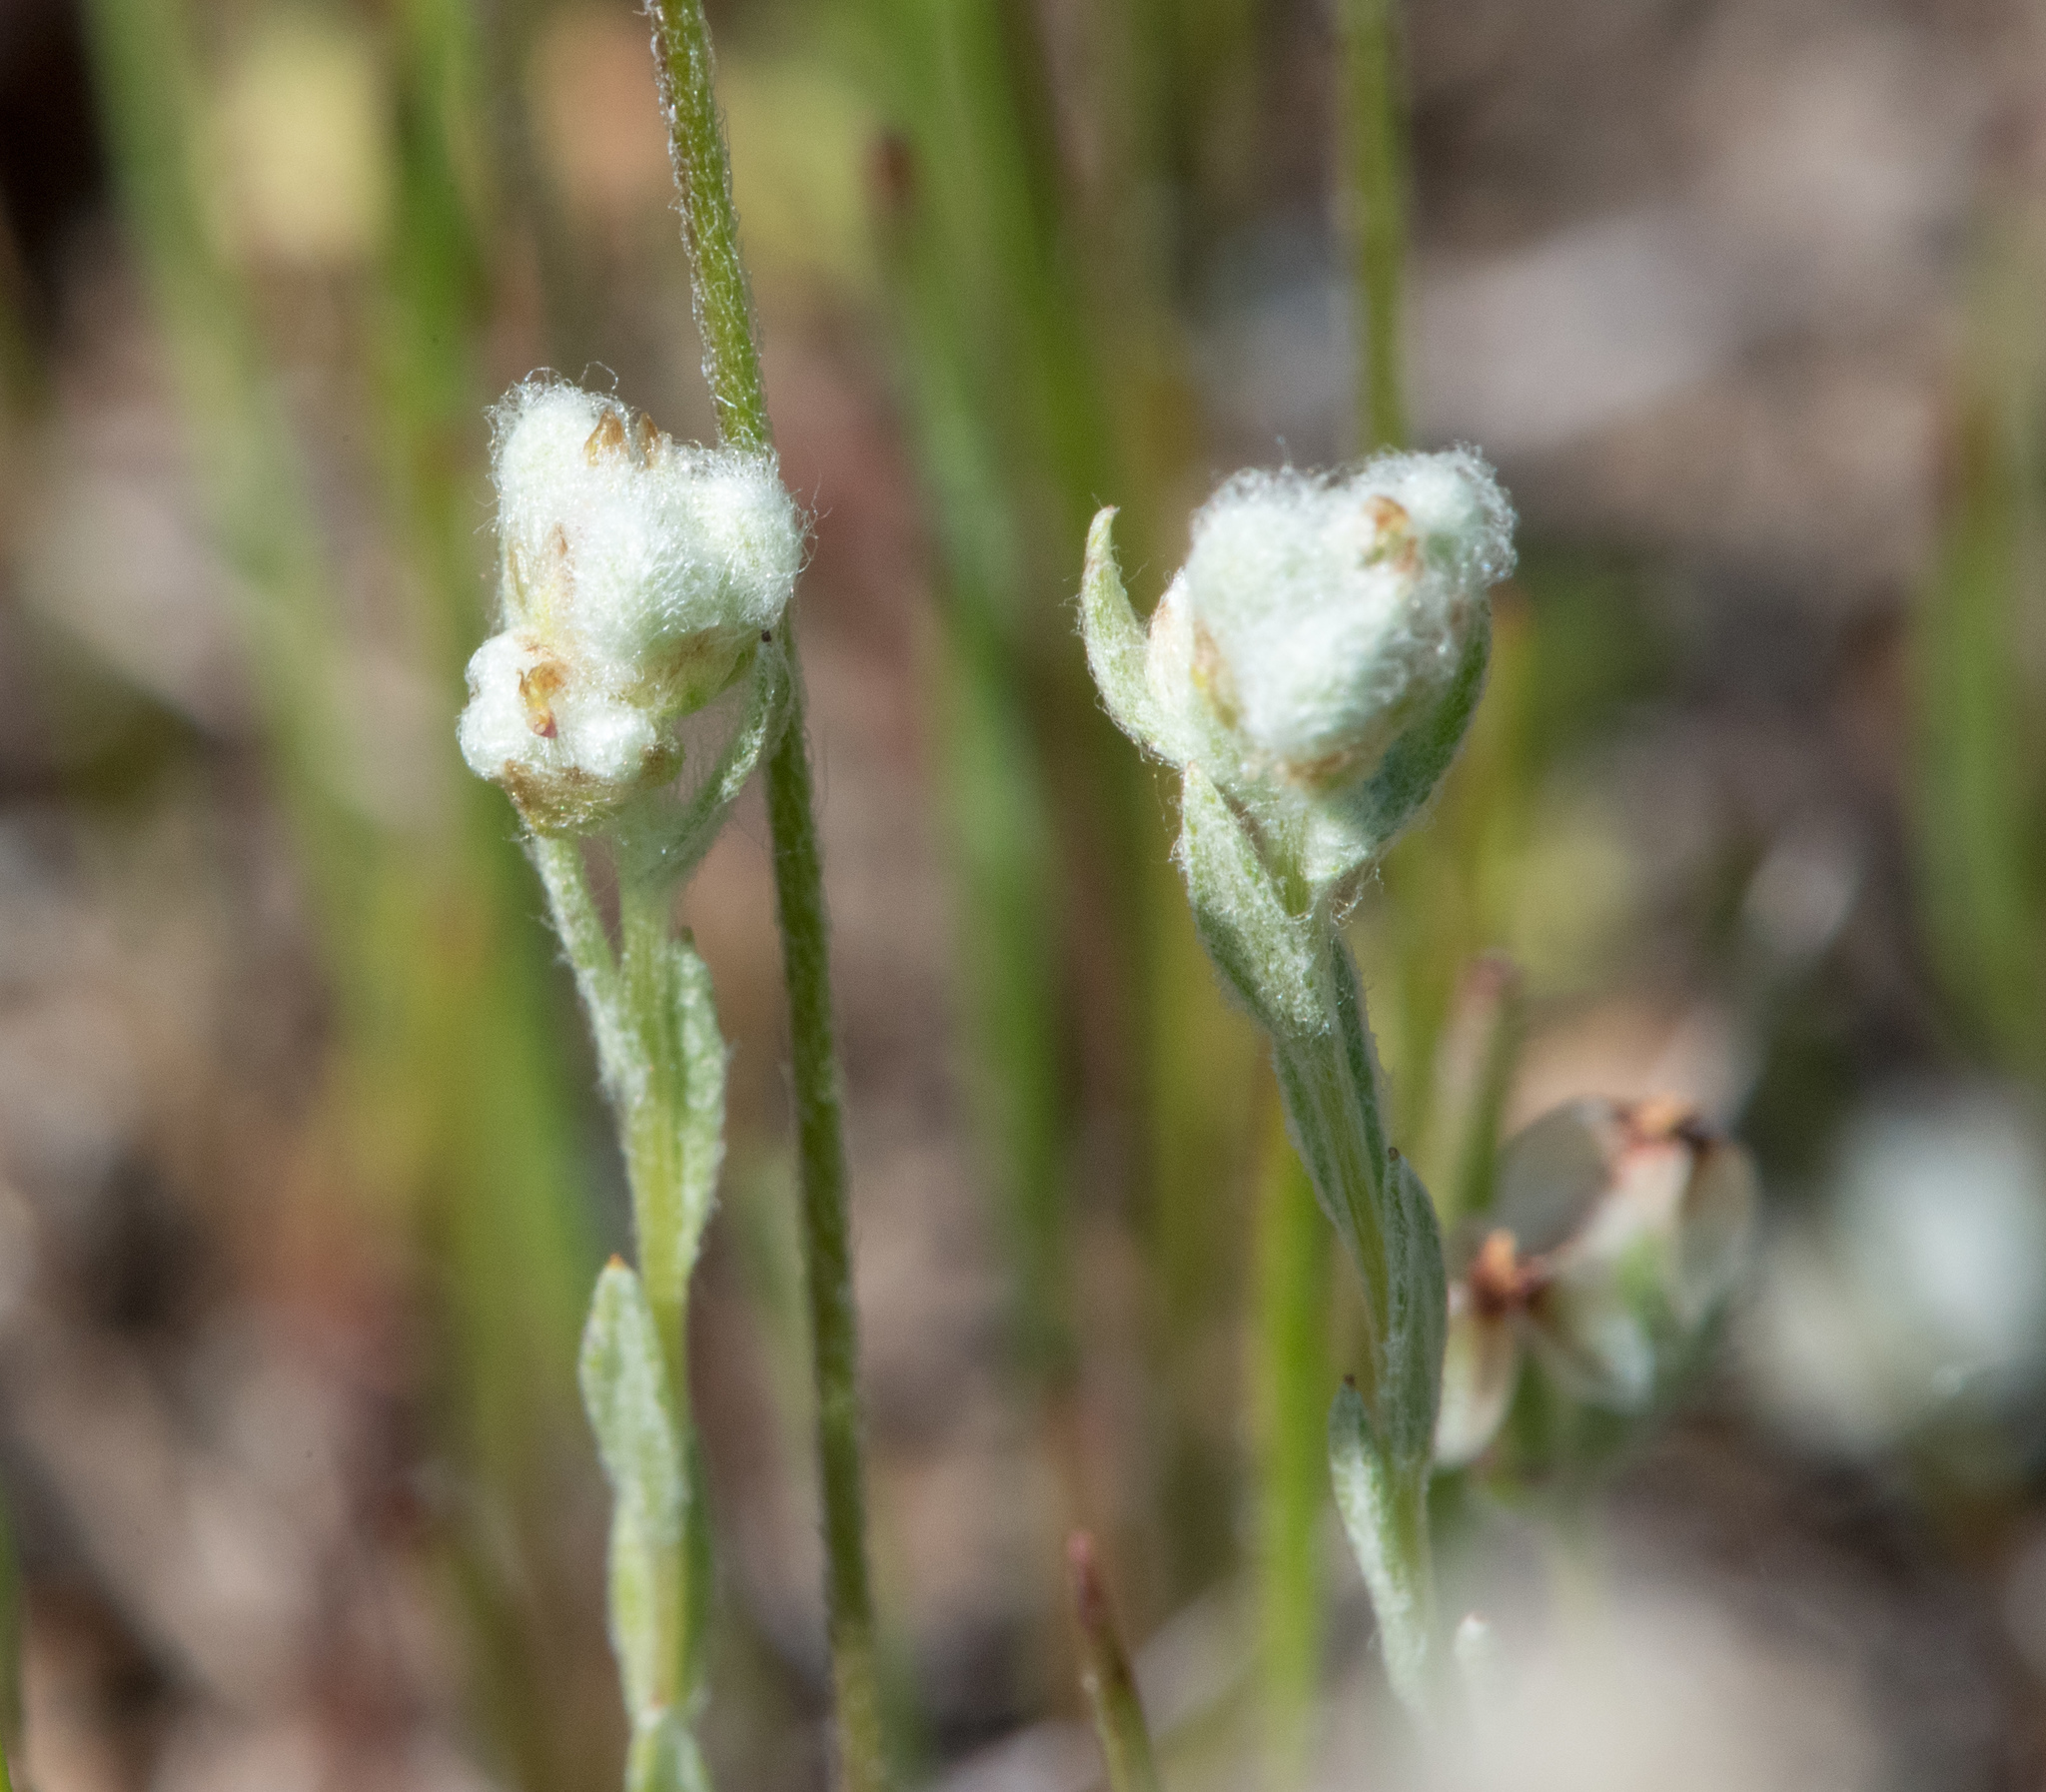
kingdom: Plantae
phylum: Tracheophyta
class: Magnoliopsida
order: Asterales
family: Asteraceae
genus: Bombycilaena
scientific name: Bombycilaena californica
